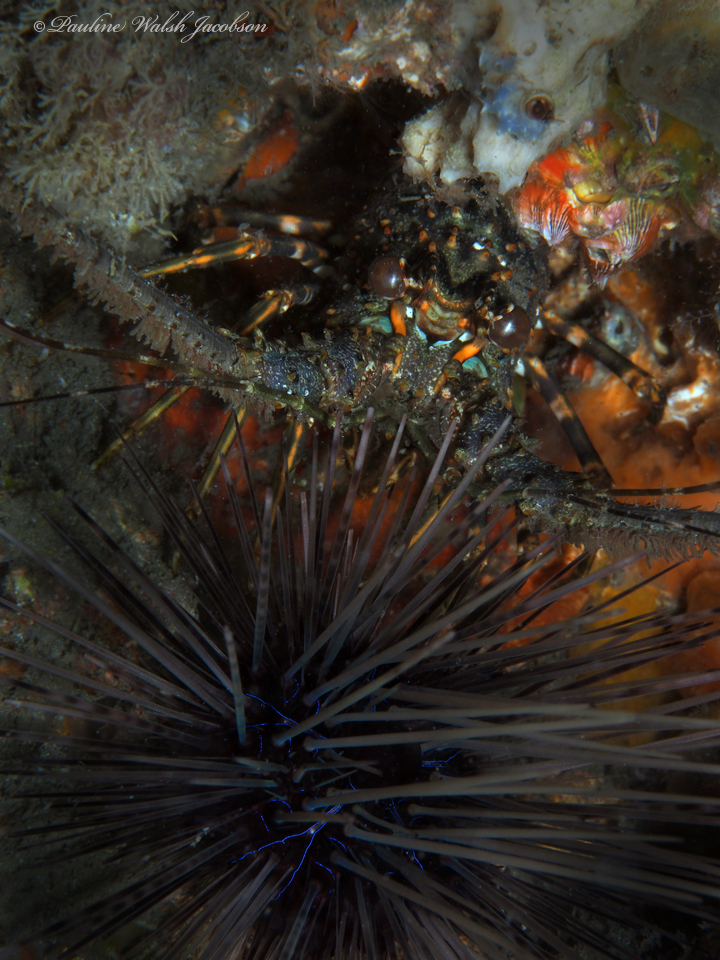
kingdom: Animalia
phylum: Arthropoda
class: Malacostraca
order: Decapoda
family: Palinuridae
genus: Panulirus
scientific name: Panulirus argus
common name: Caribbean spiny lobster
